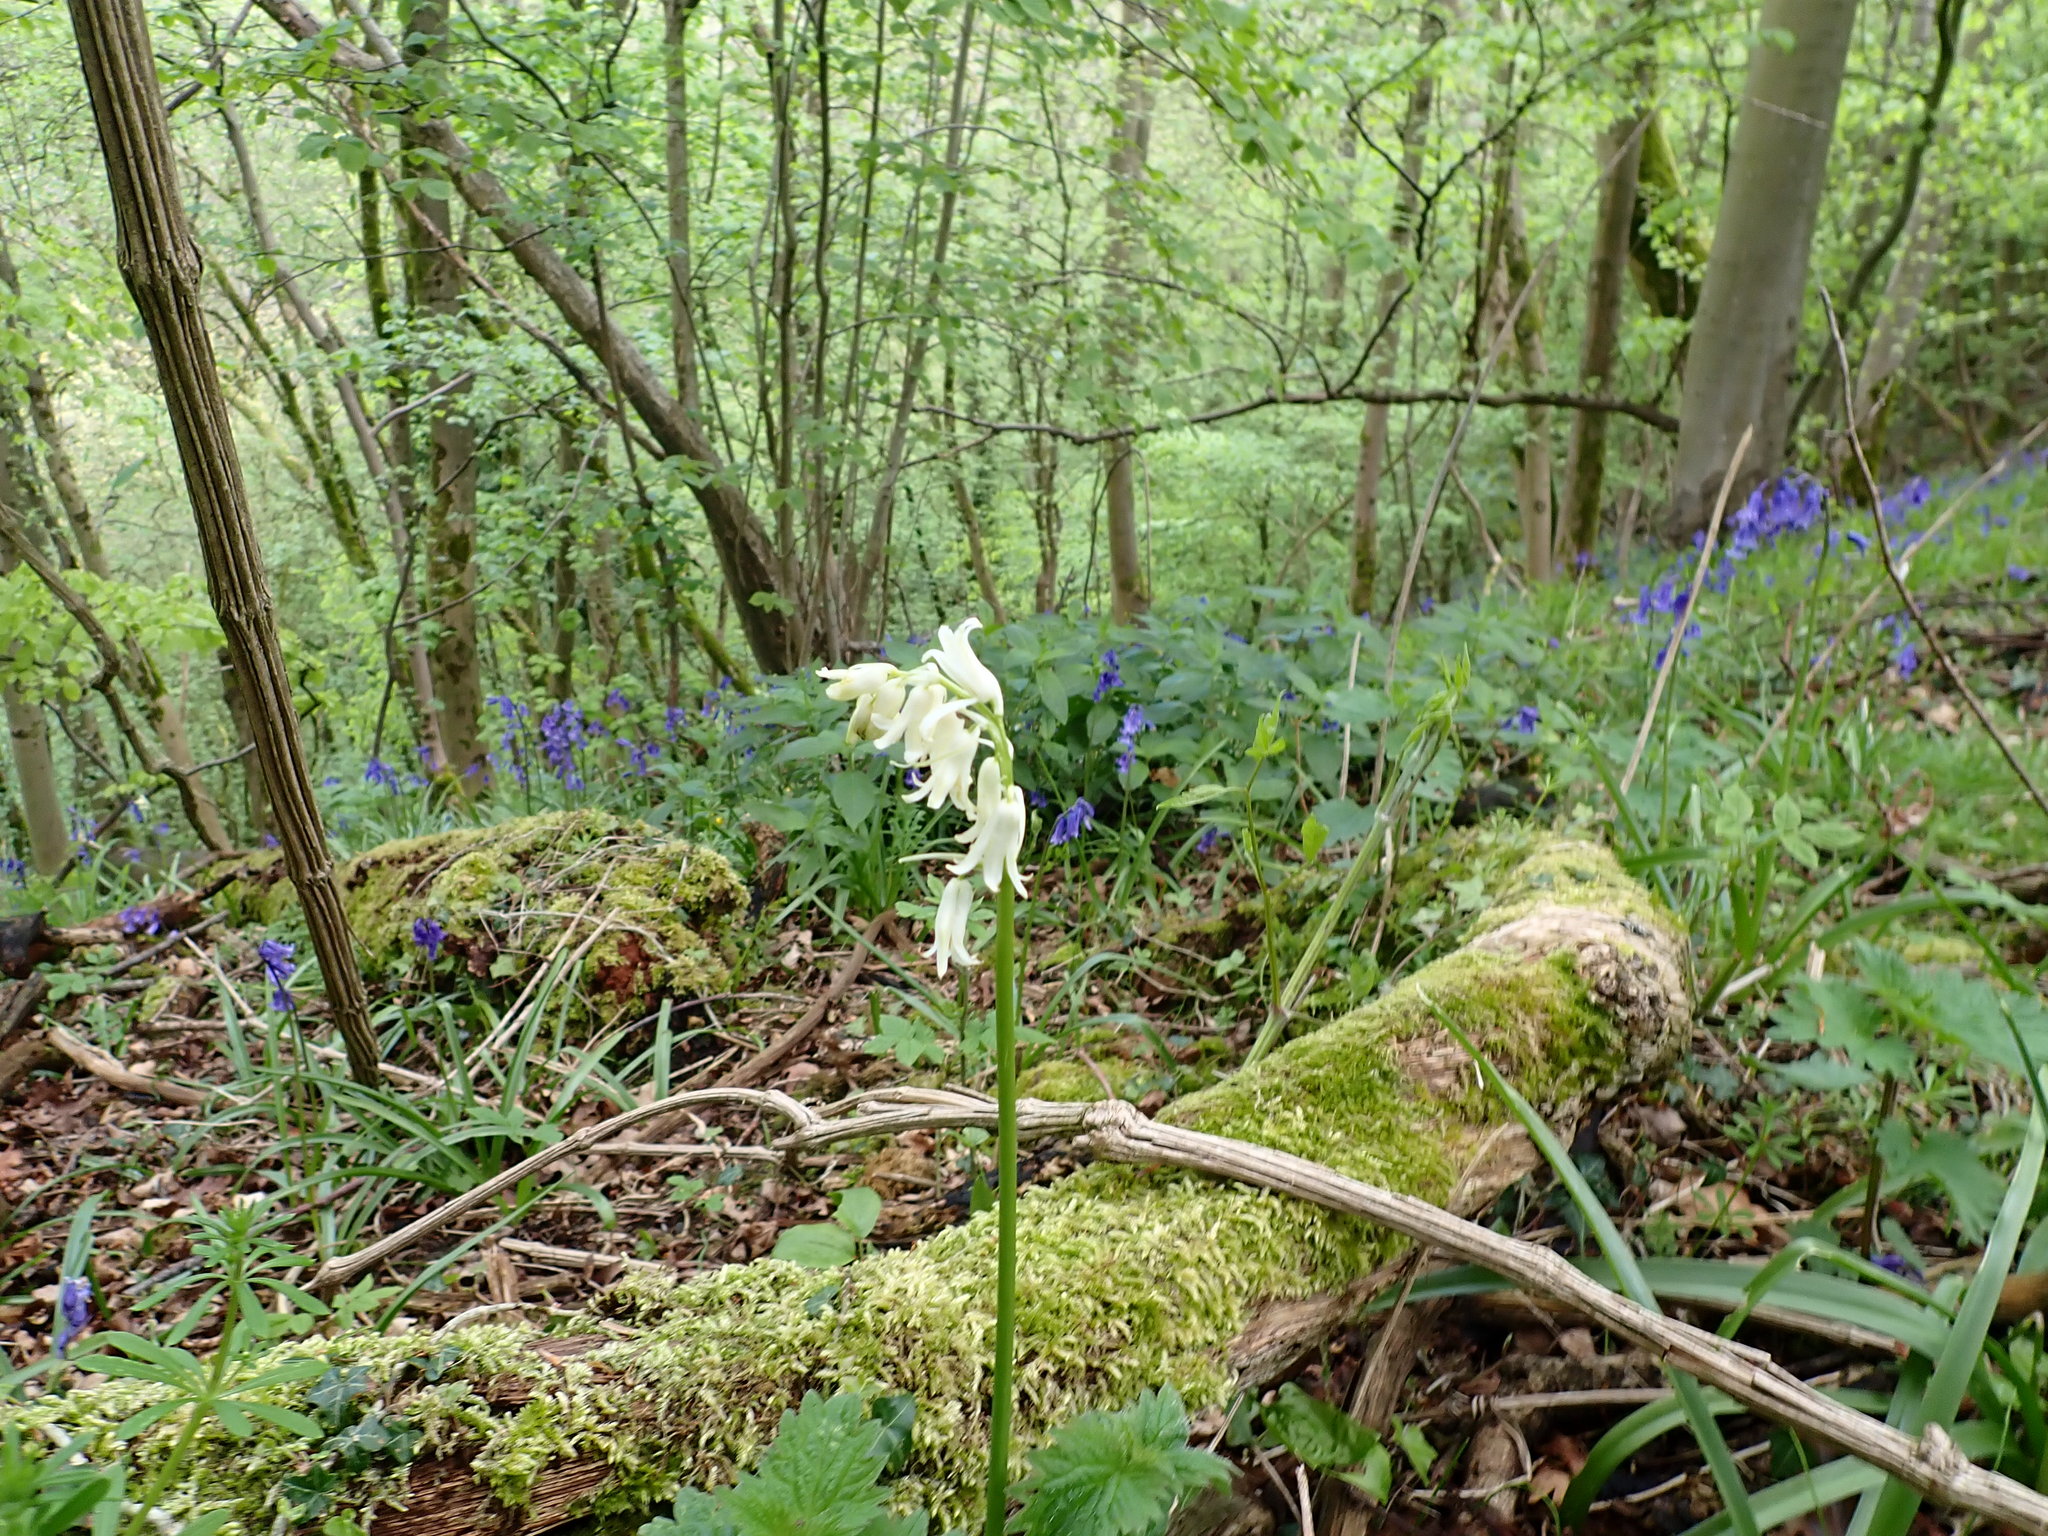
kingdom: Plantae
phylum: Tracheophyta
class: Liliopsida
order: Asparagales
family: Asparagaceae
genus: Hyacinthoides
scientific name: Hyacinthoides non-scripta
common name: Bluebell
